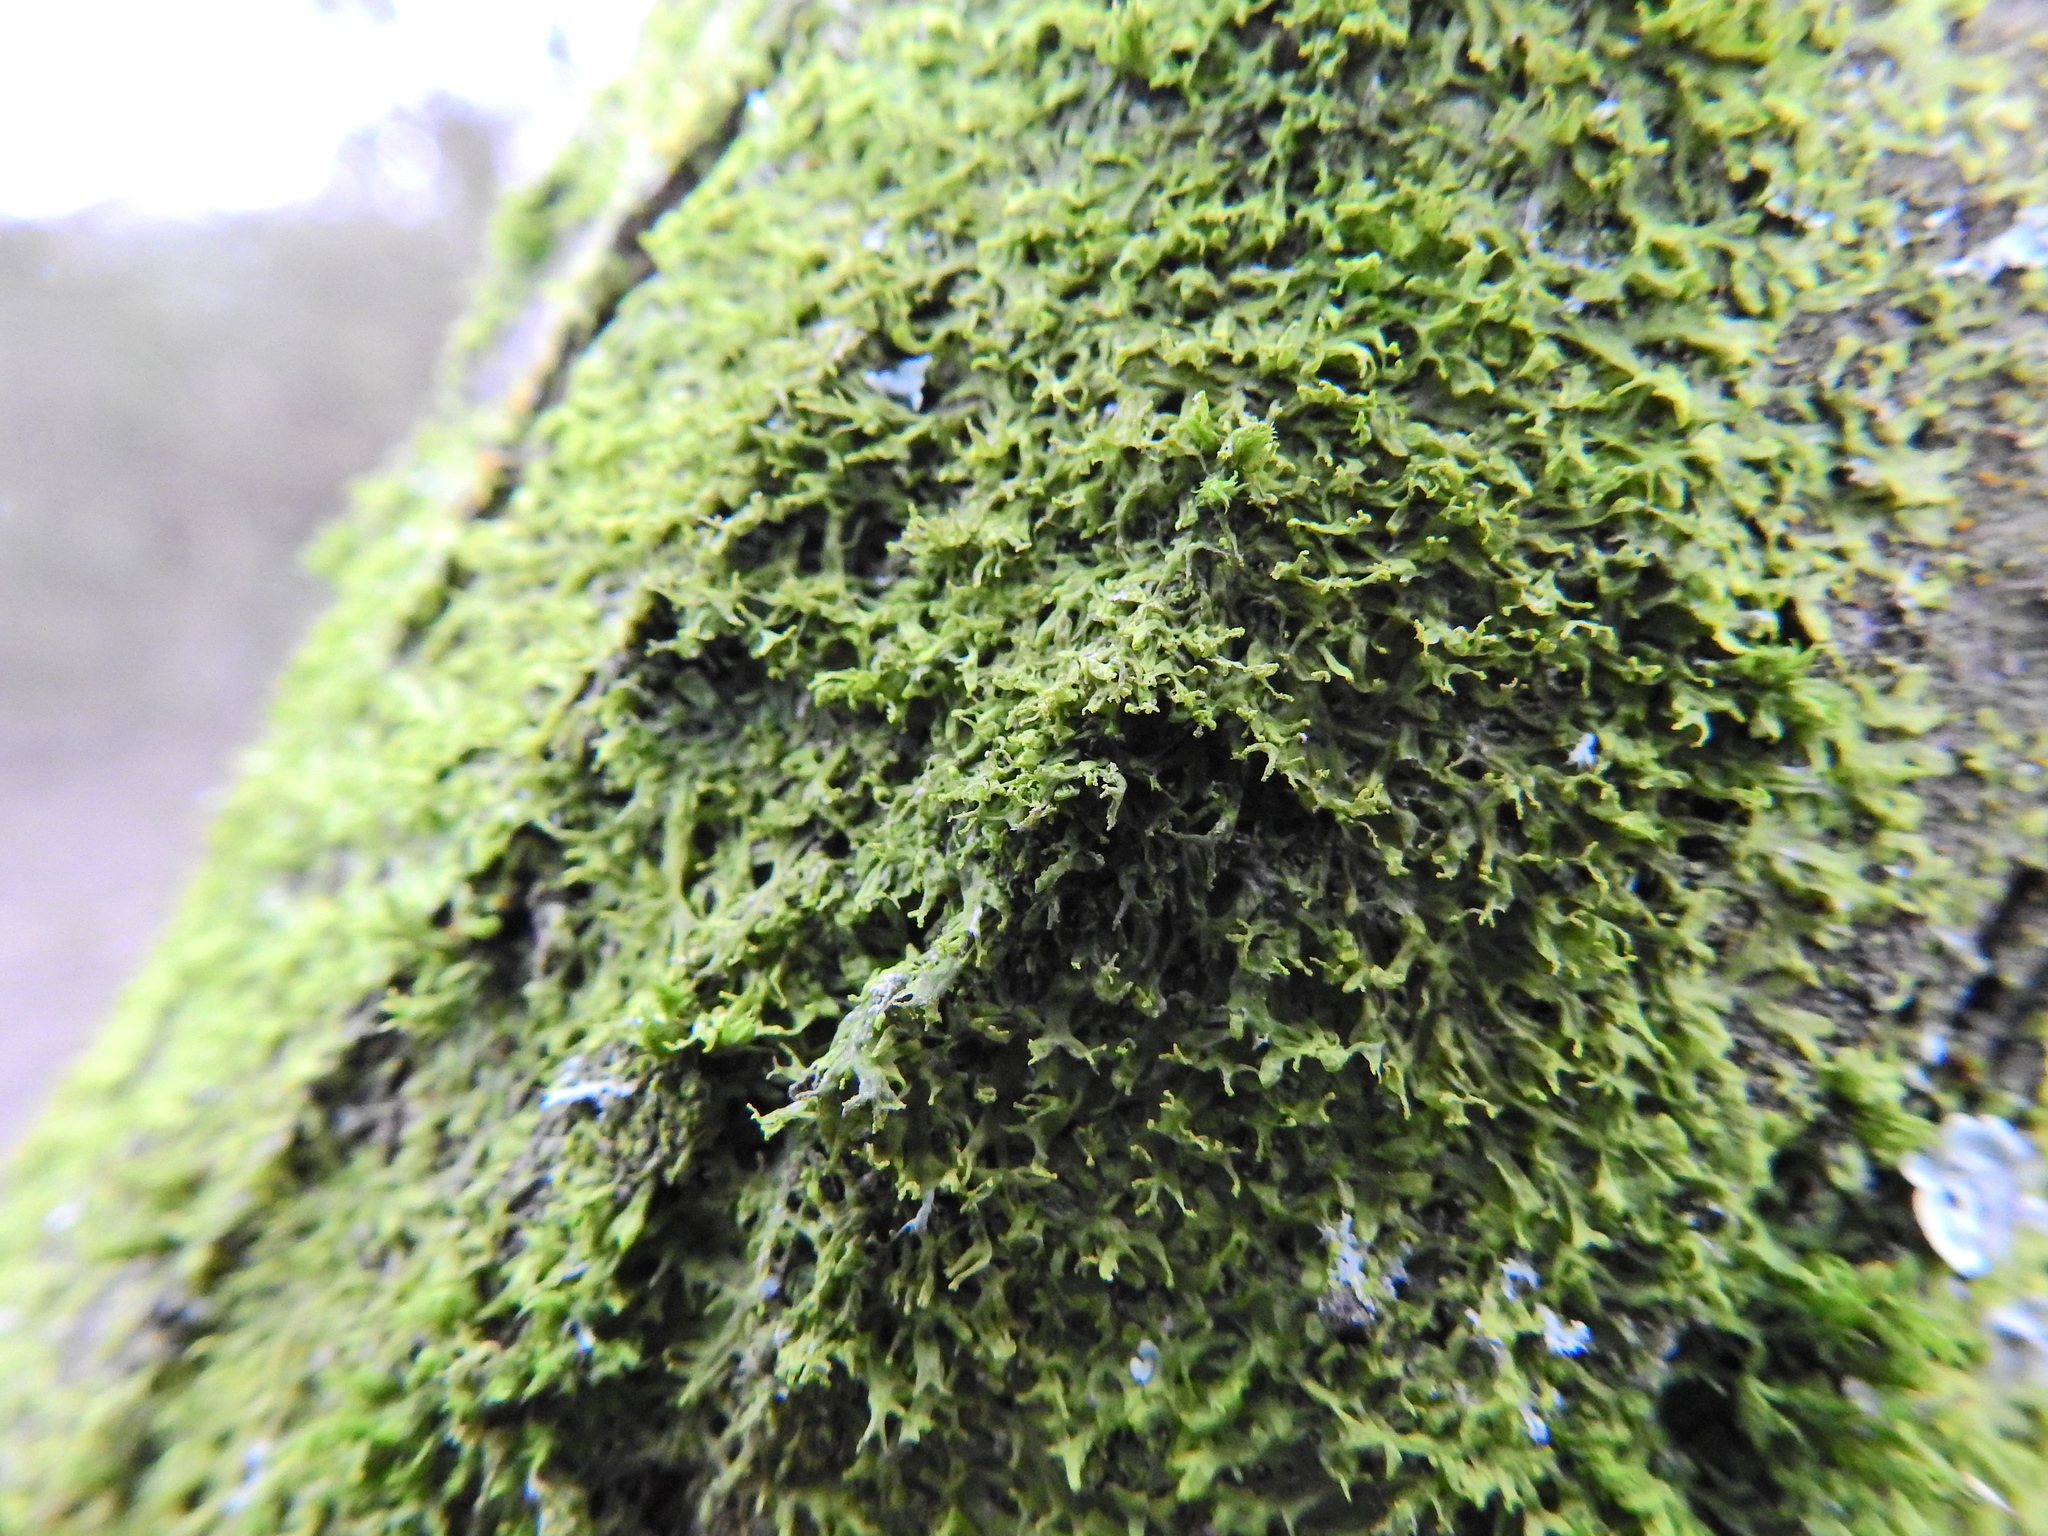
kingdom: Plantae
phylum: Marchantiophyta
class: Jungermanniopsida
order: Metzgeriales
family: Metzgeriaceae
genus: Metzgeria
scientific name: Metzgeria violacea
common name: Blueish veilwort
